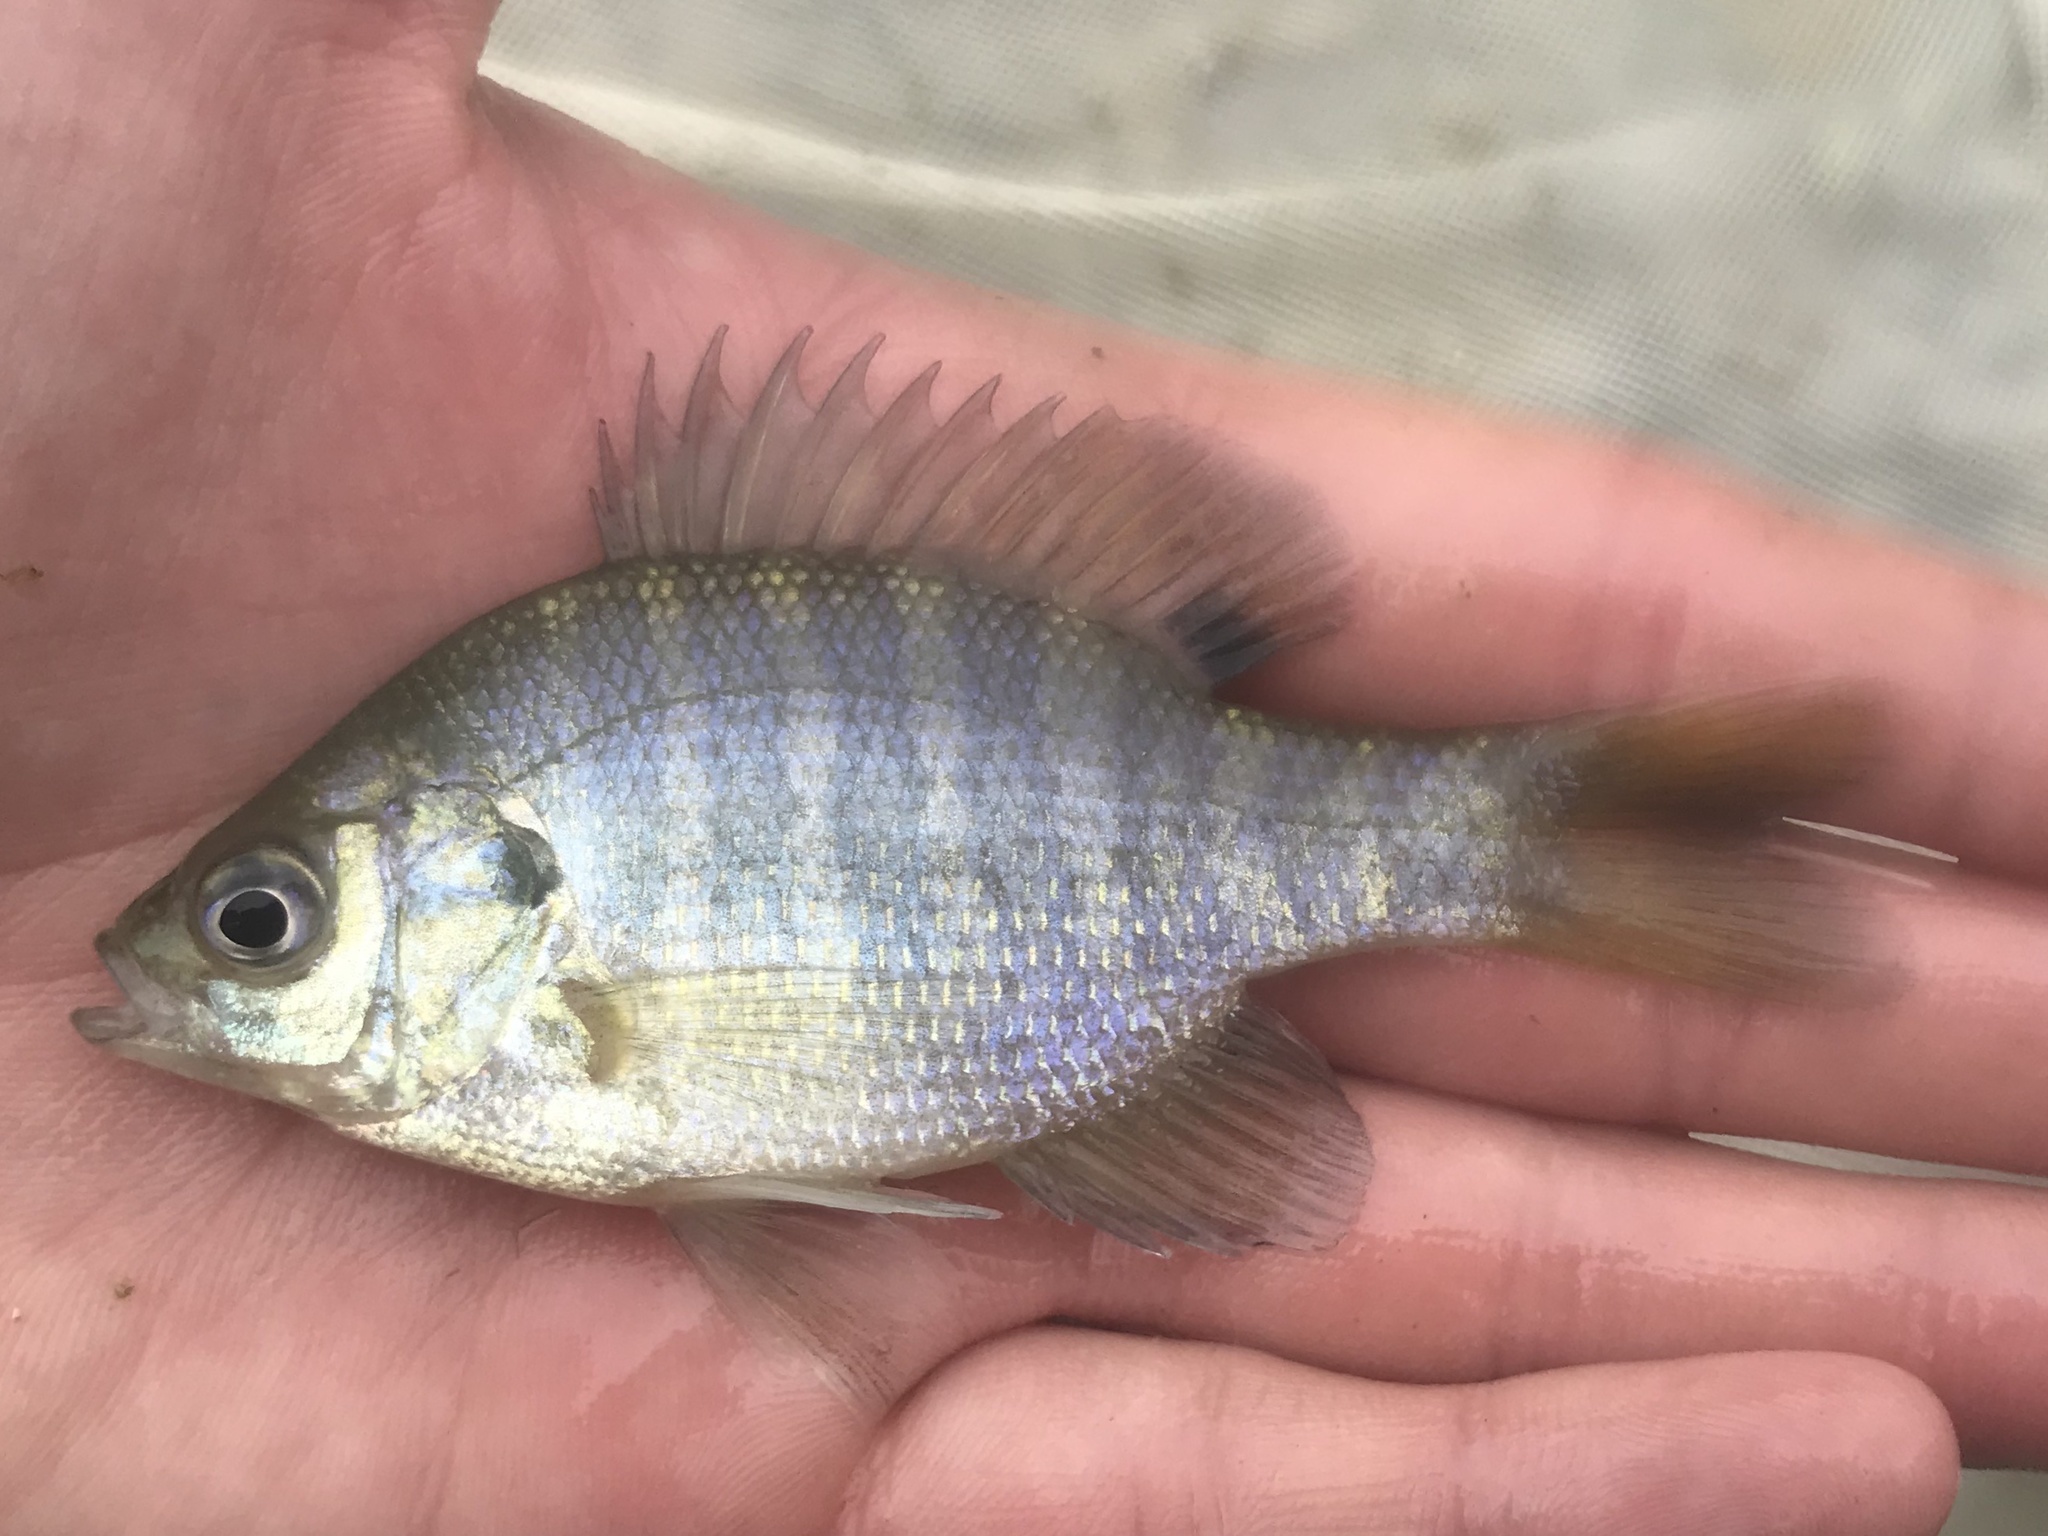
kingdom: Animalia
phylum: Chordata
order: Perciformes
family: Centrarchidae
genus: Lepomis
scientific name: Lepomis macrochirus
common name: Bluegill
